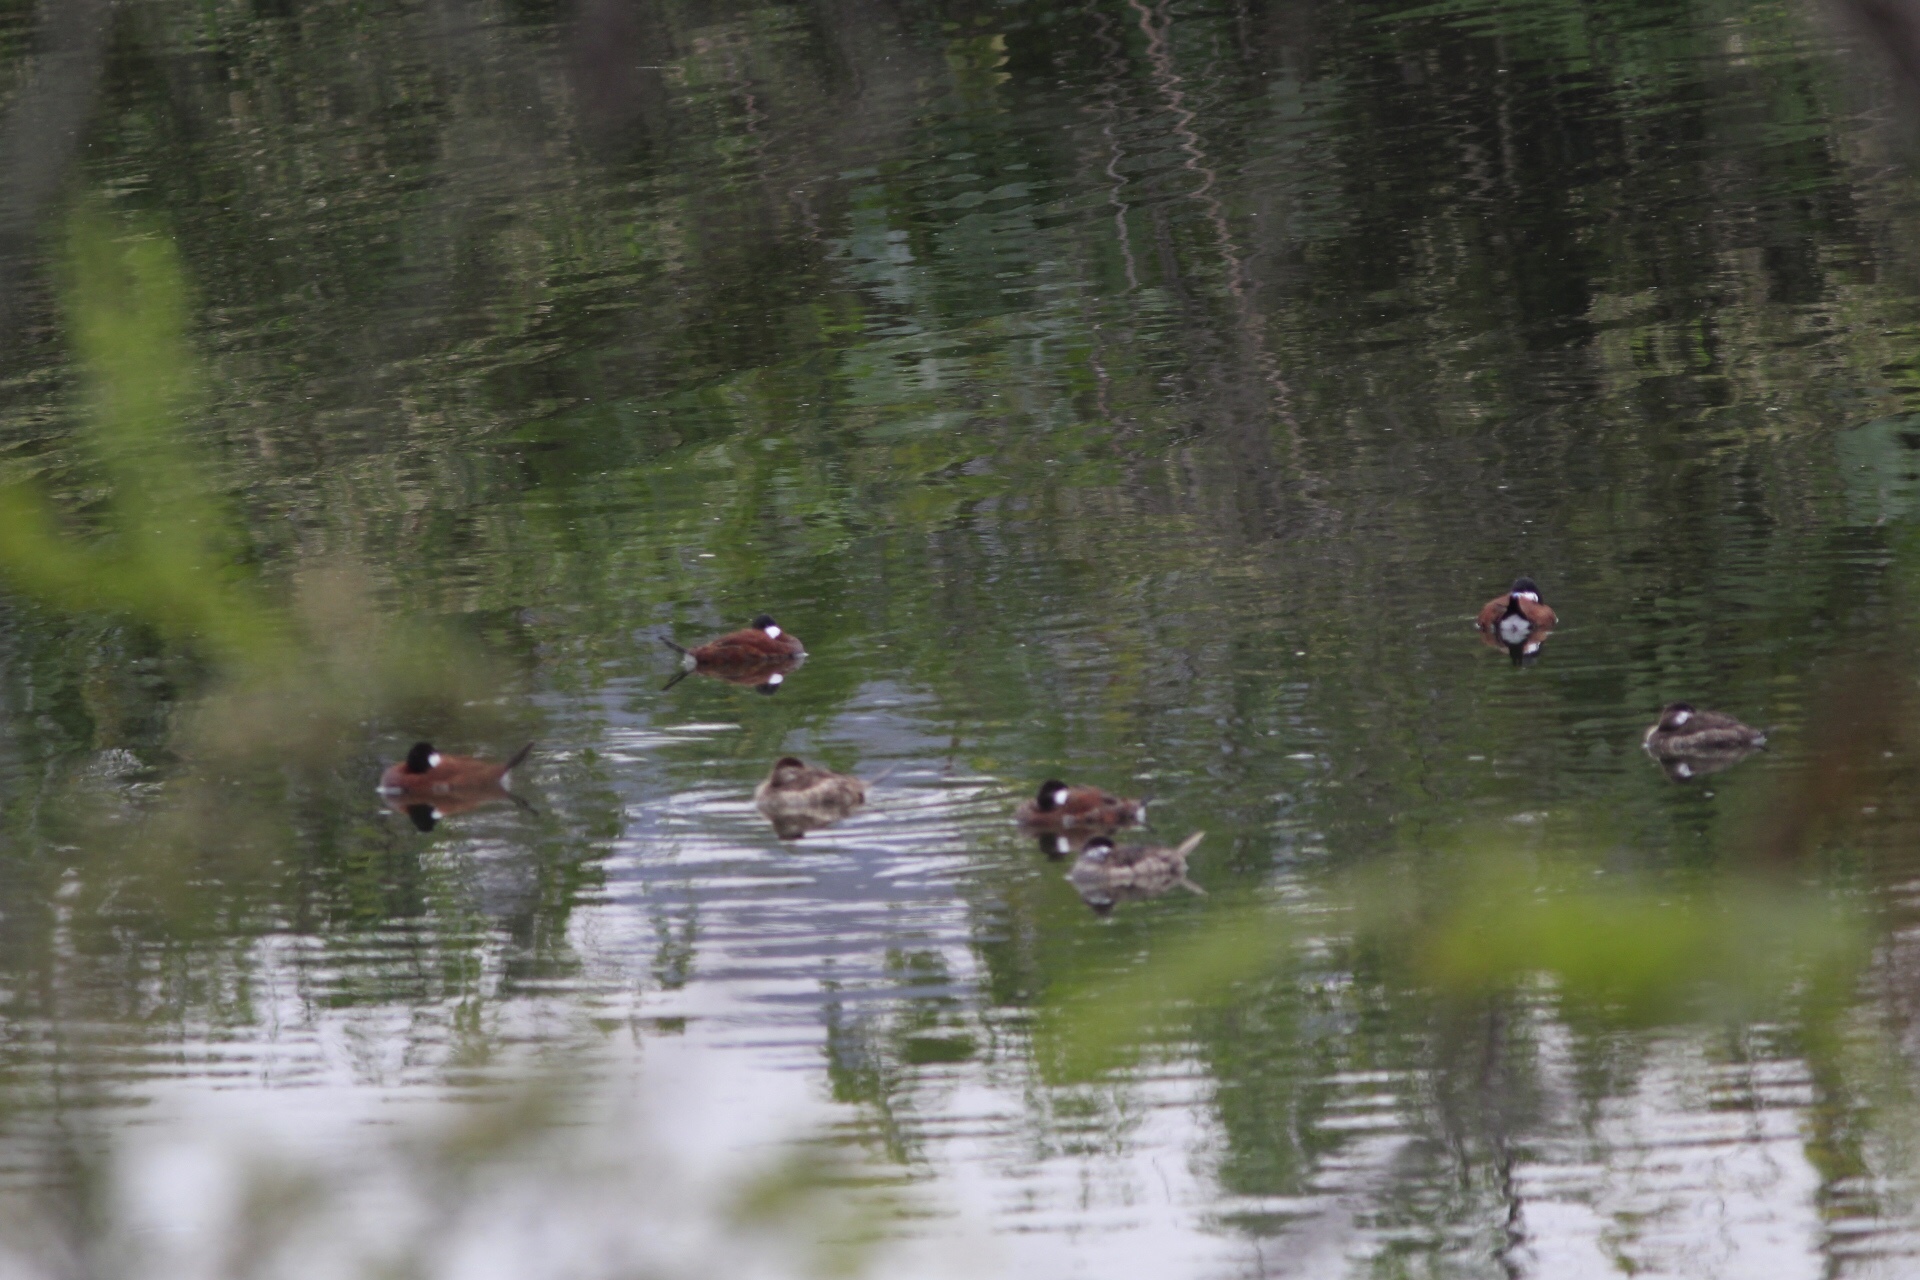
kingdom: Animalia
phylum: Chordata
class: Aves
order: Anseriformes
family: Anatidae
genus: Oxyura
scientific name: Oxyura jamaicensis
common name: Ruddy duck
